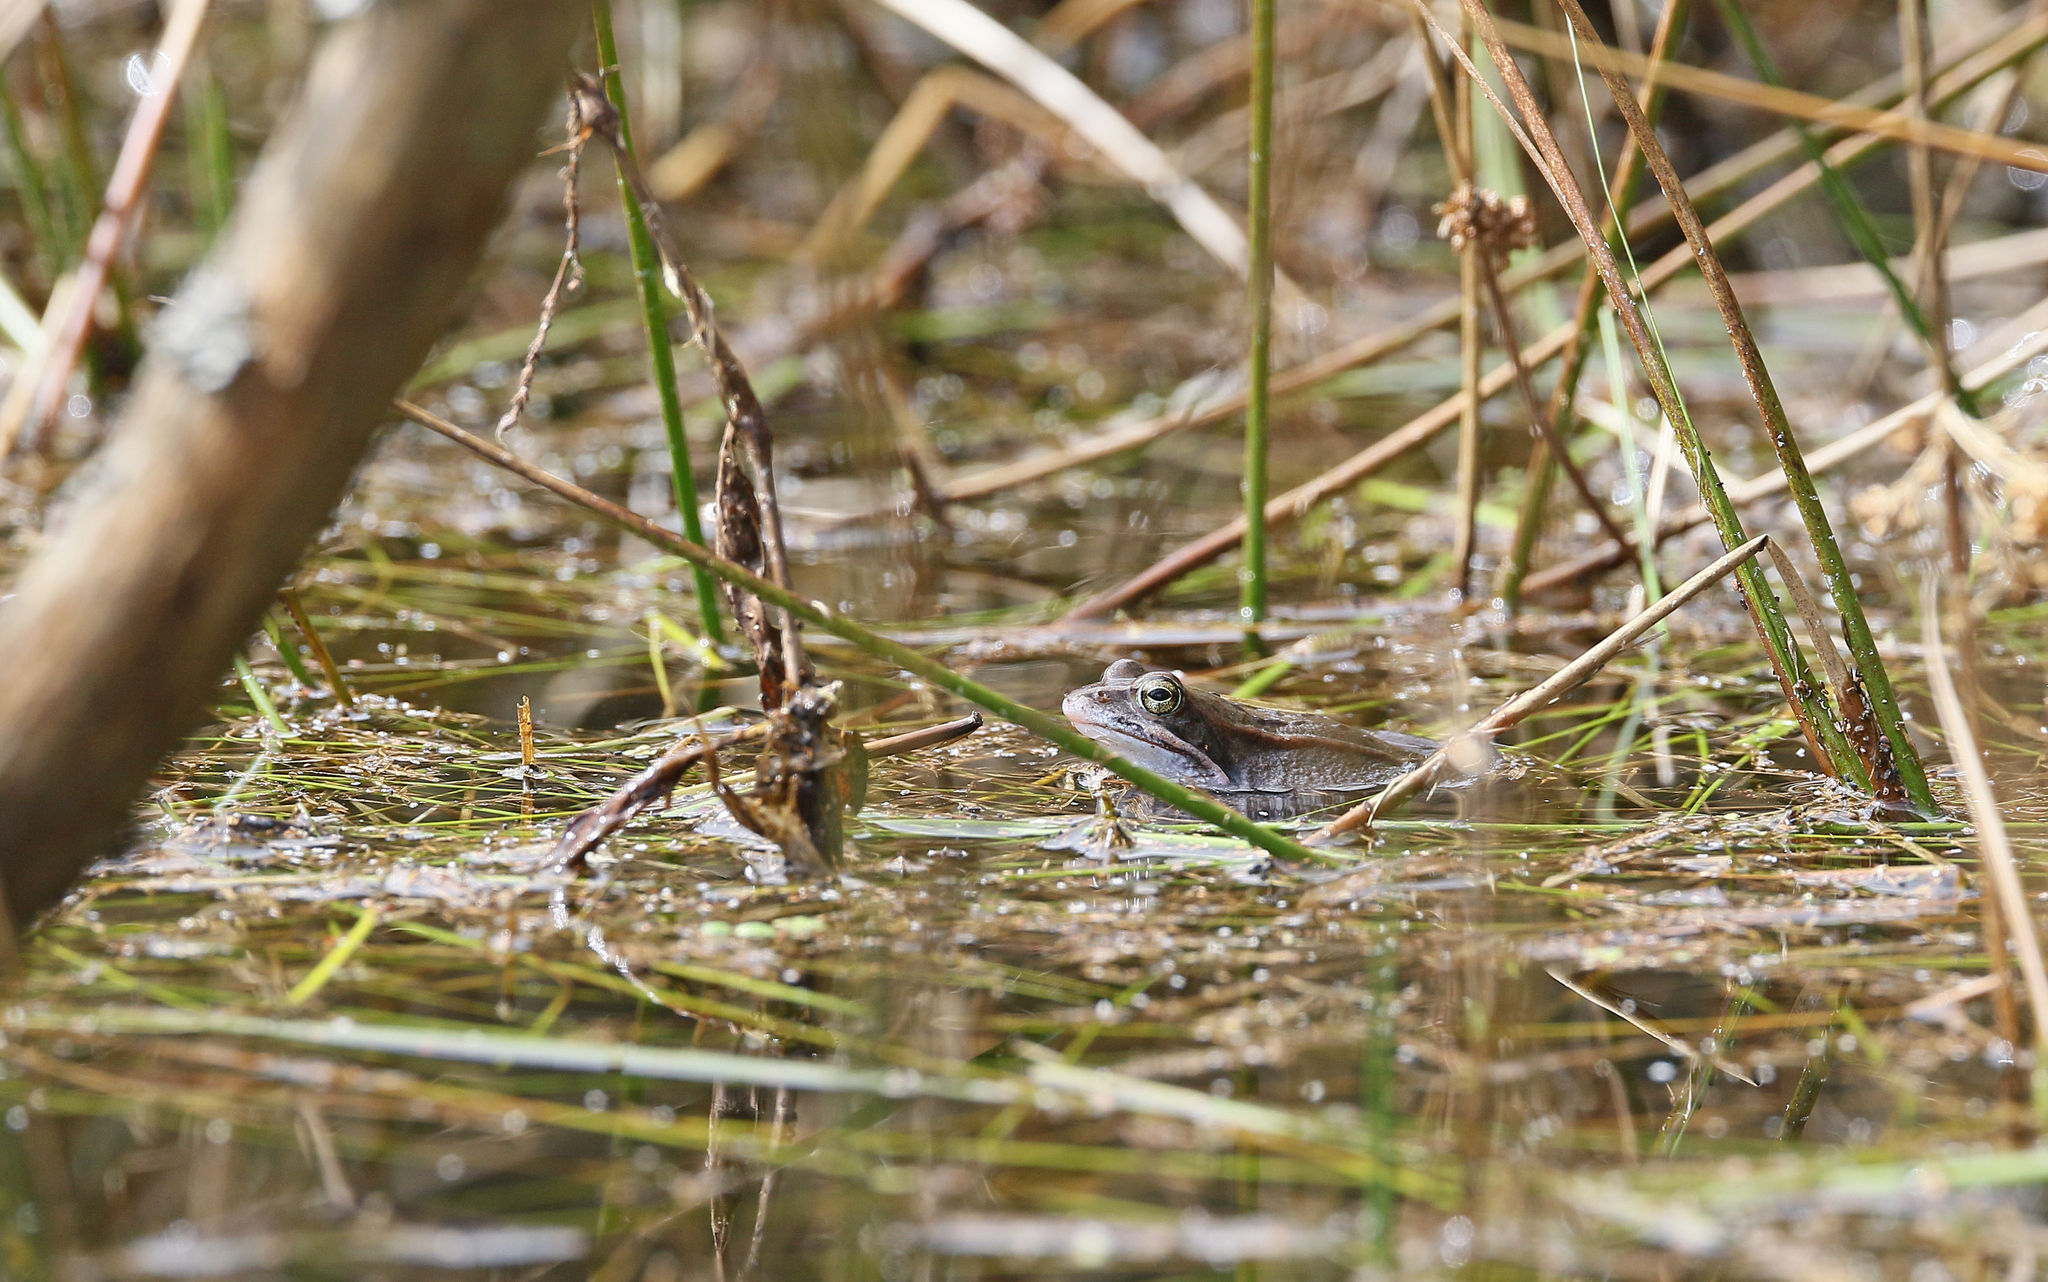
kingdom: Animalia
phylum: Chordata
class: Amphibia
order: Anura
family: Ranidae
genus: Rana
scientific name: Rana arvalis
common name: Moor frog
